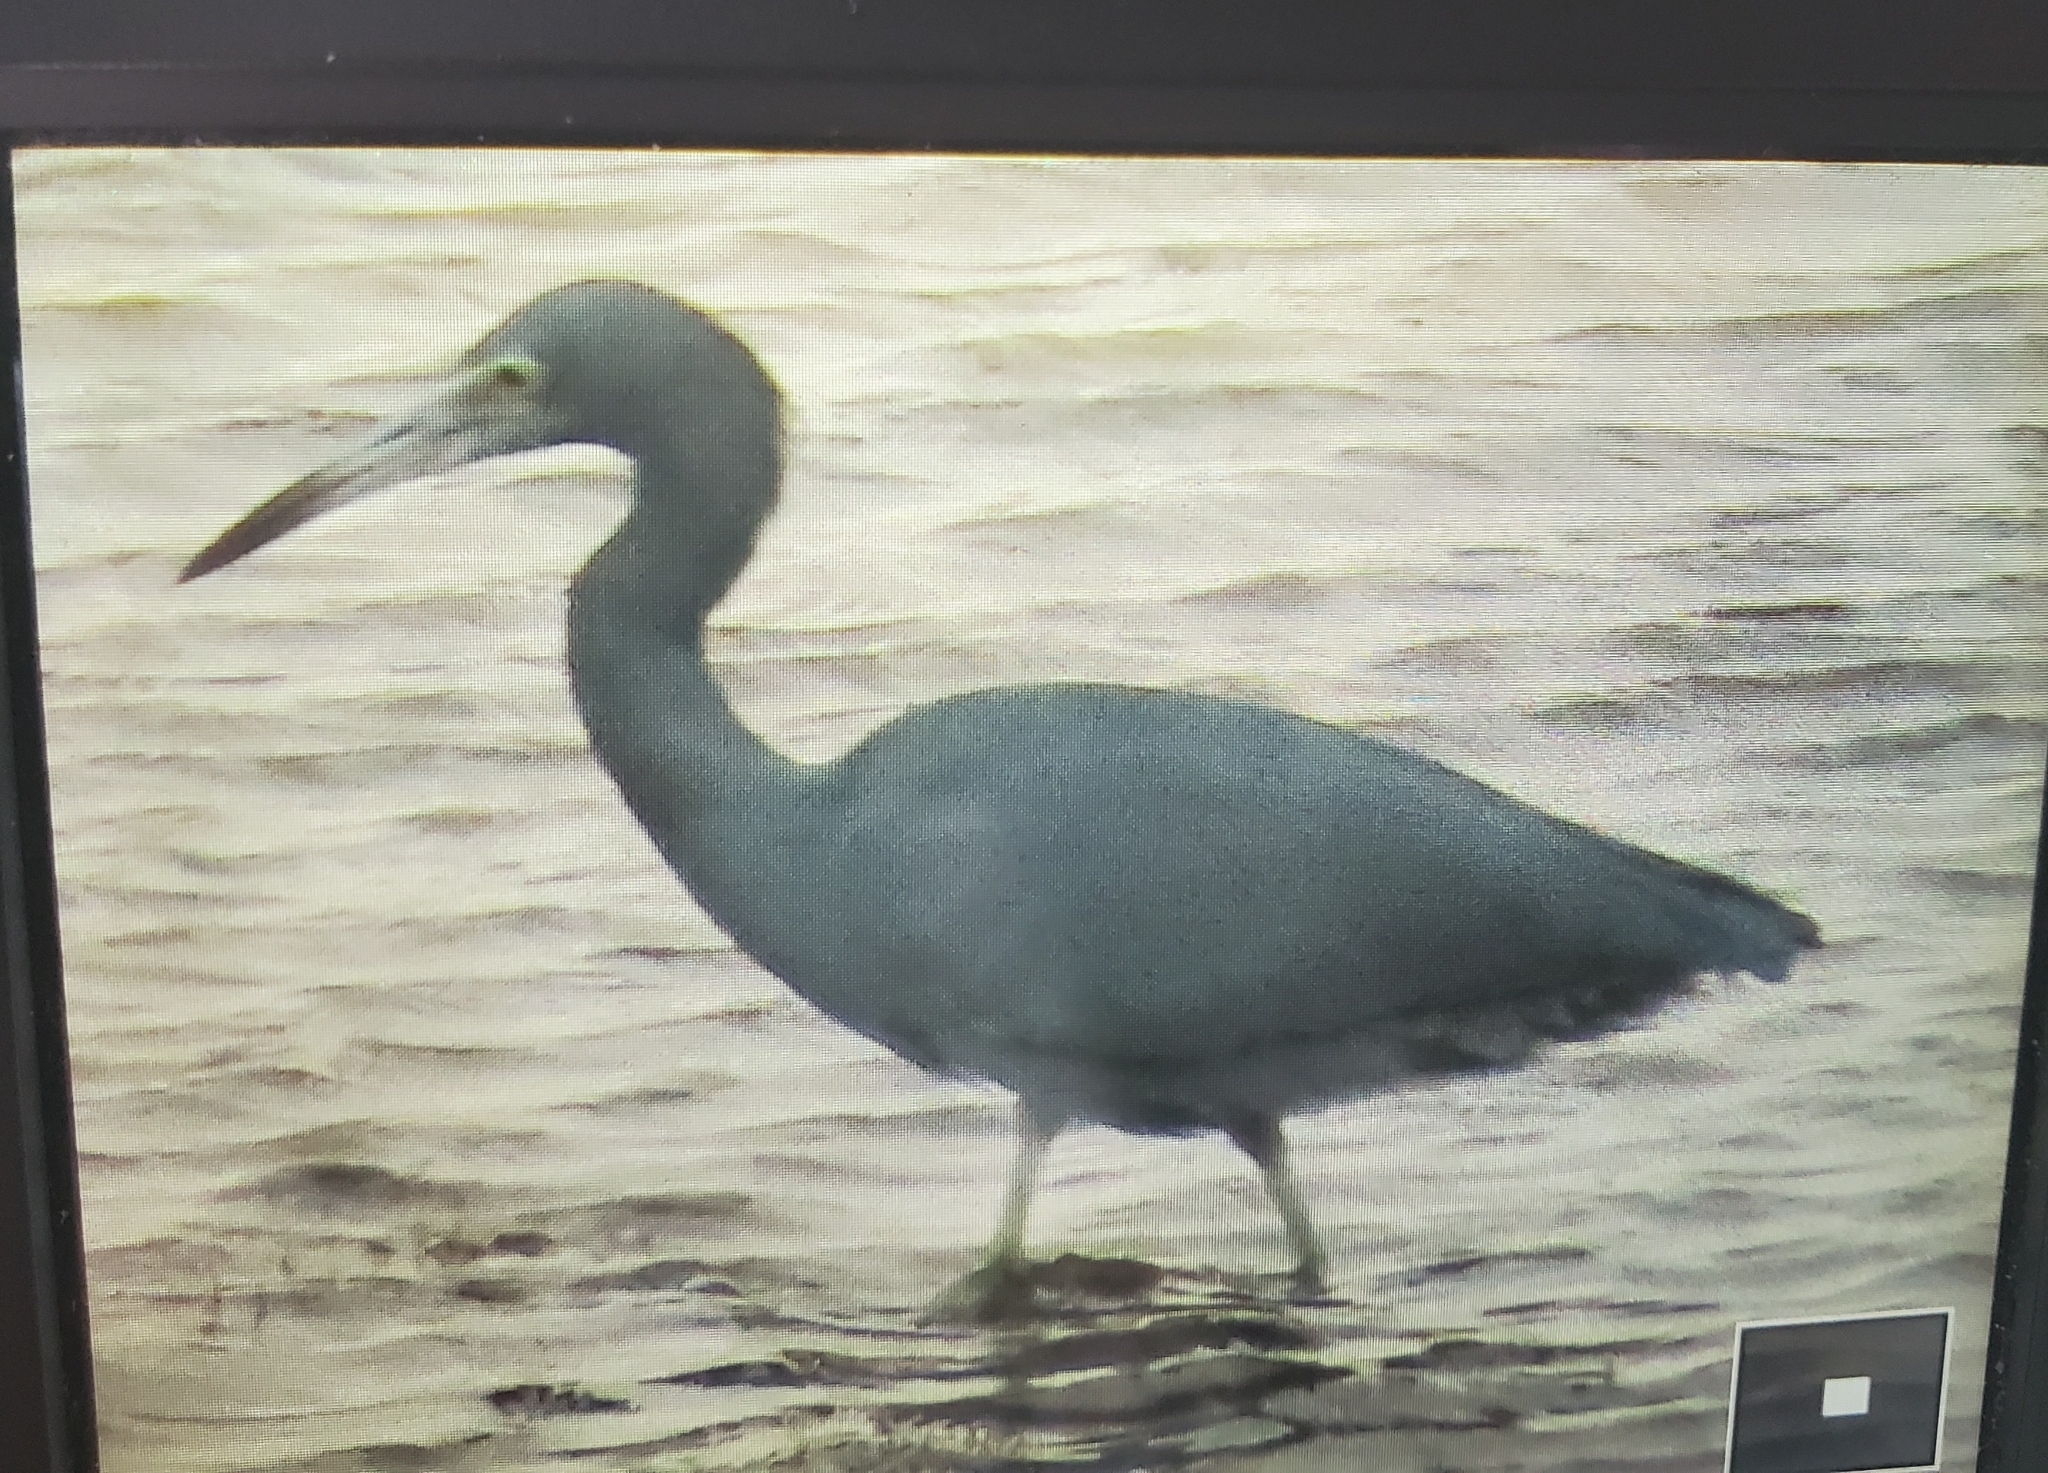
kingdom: Animalia
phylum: Chordata
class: Aves
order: Pelecaniformes
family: Ardeidae
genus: Egretta
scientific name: Egretta caerulea
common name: Little blue heron
